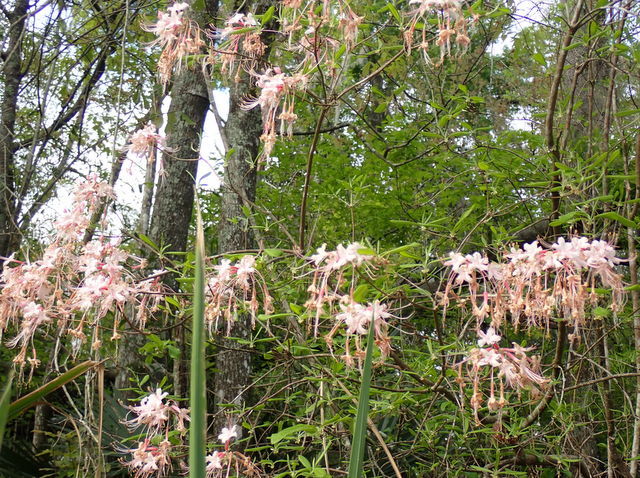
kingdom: Plantae
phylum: Tracheophyta
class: Magnoliopsida
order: Ericales
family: Ericaceae
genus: Rhododendron
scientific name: Rhododendron canescens
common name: Mountain azalea
